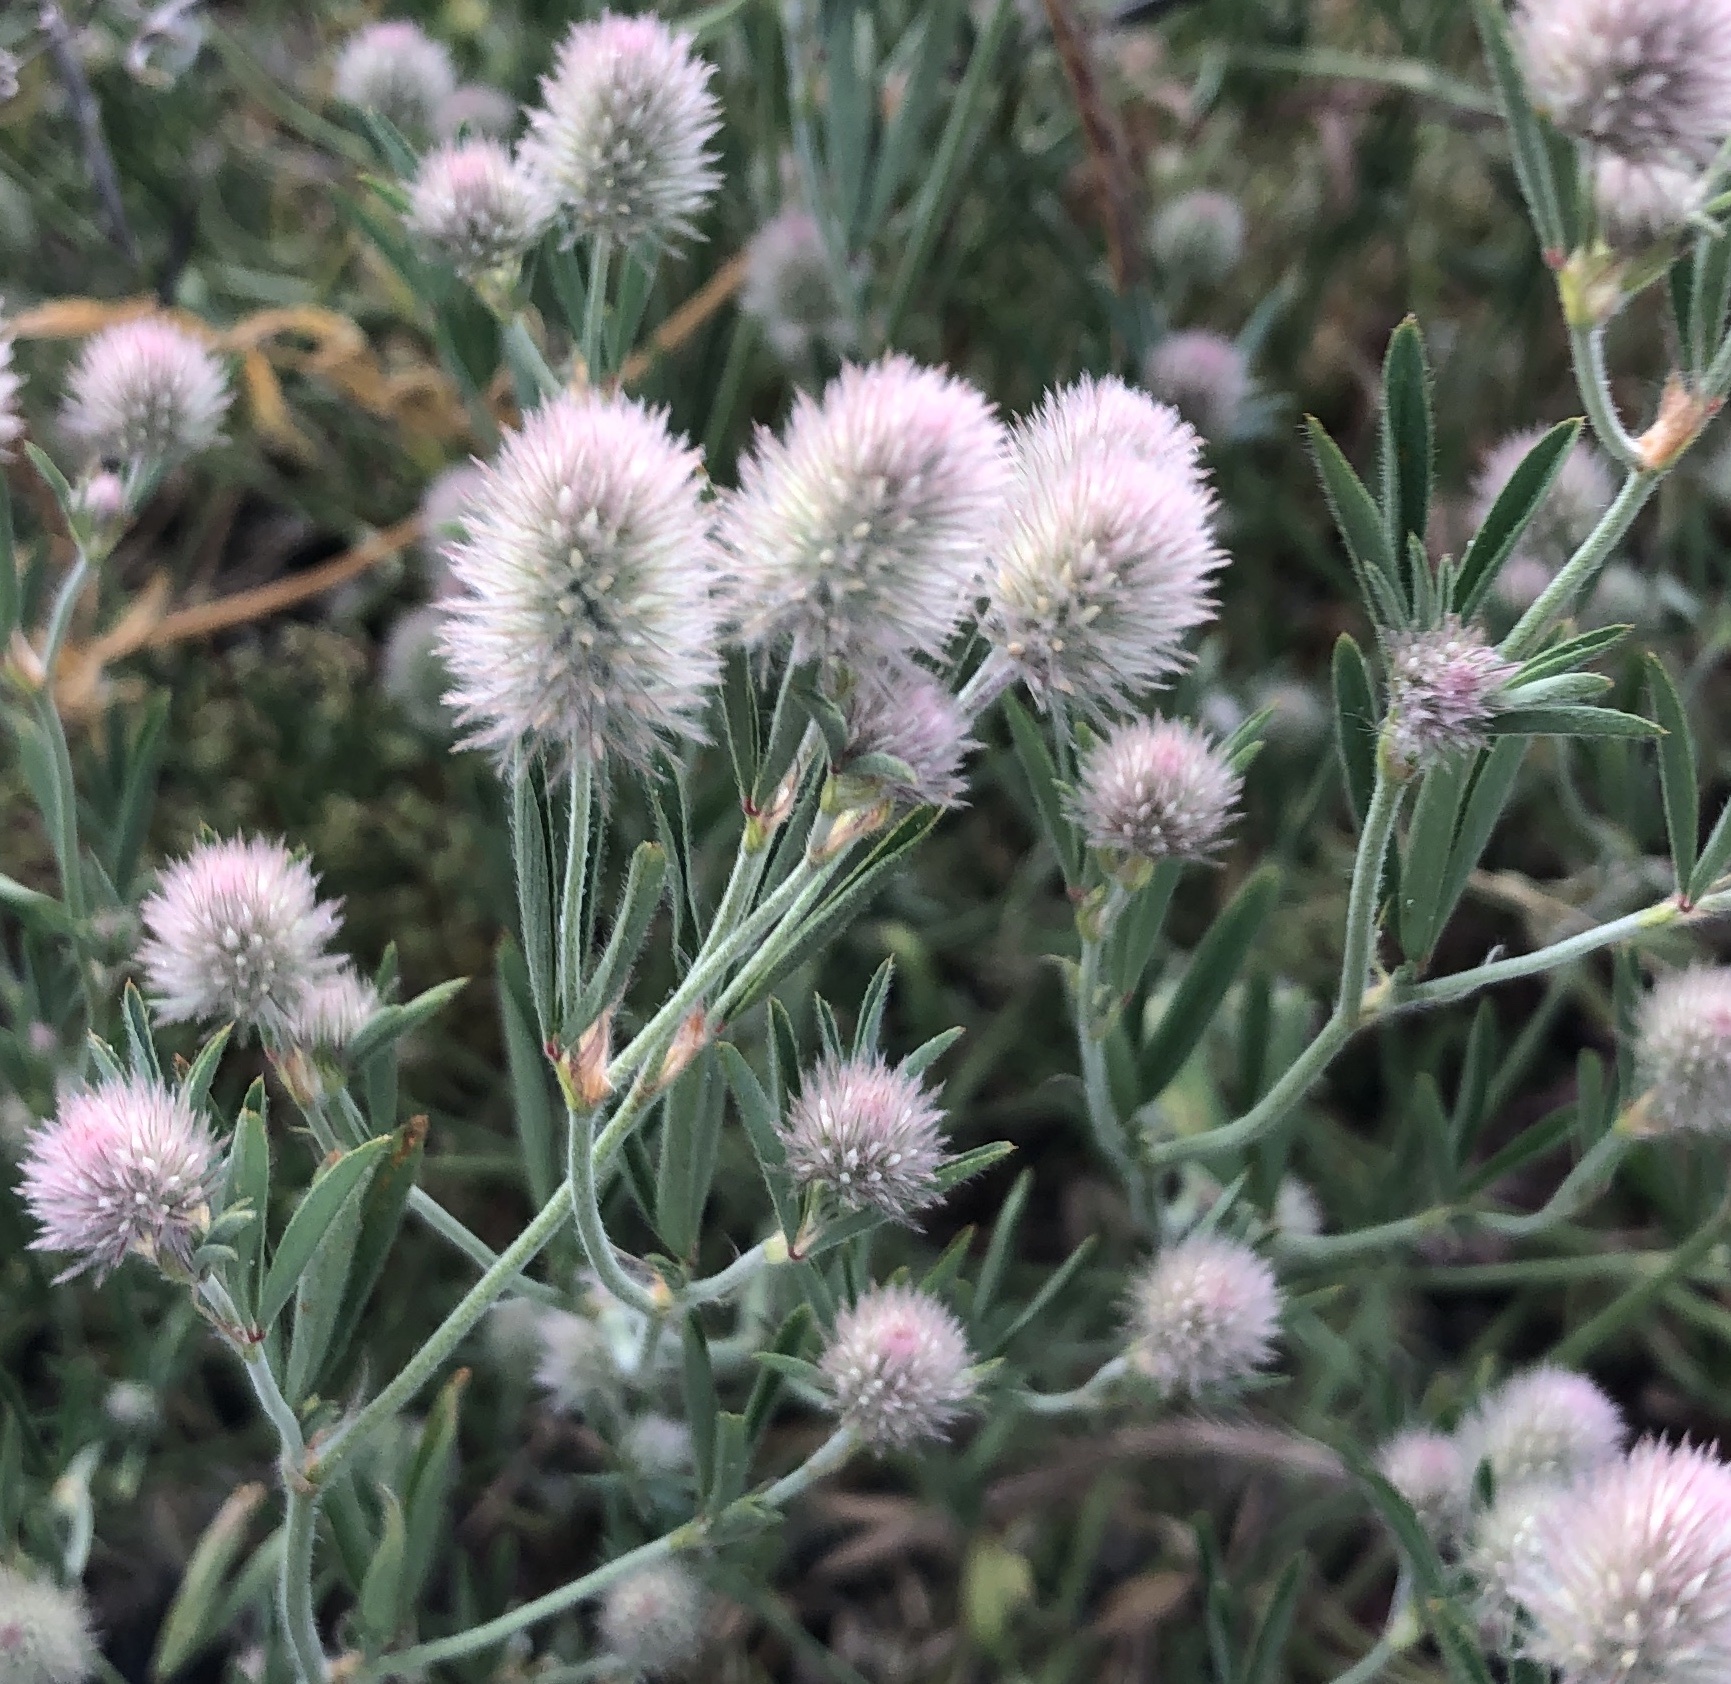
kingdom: Plantae
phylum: Tracheophyta
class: Magnoliopsida
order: Fabales
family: Fabaceae
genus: Trifolium
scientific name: Trifolium arvense
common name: Hare's-foot clover
